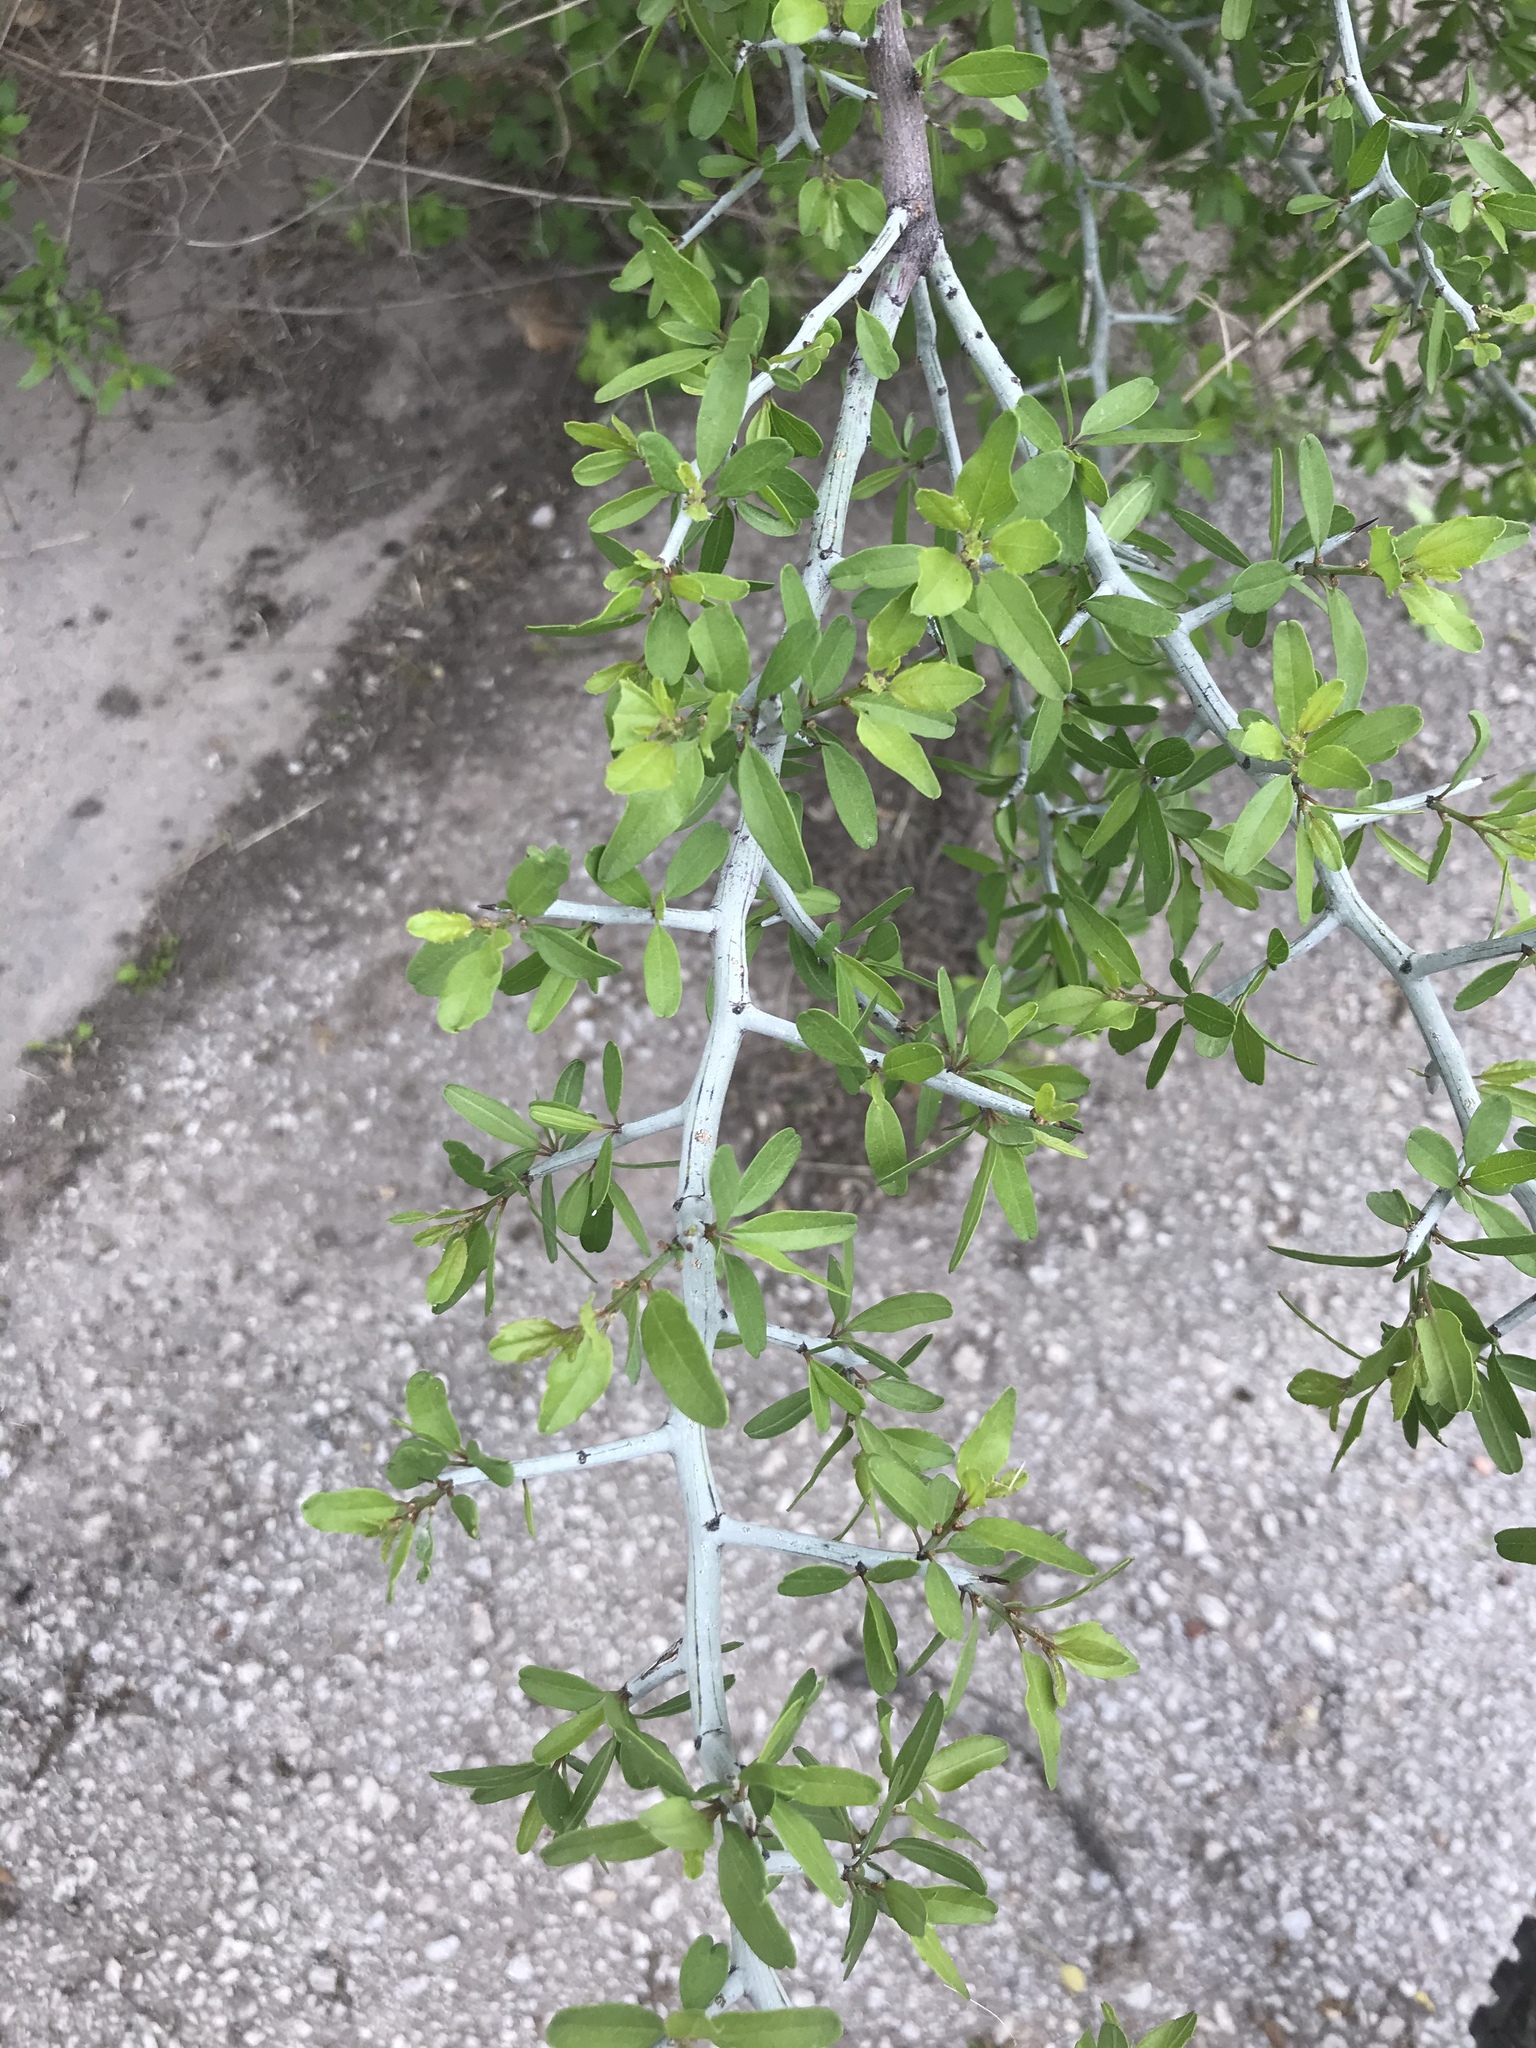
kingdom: Plantae
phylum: Tracheophyta
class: Magnoliopsida
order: Rosales
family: Rhamnaceae
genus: Sarcomphalus
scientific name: Sarcomphalus obtusifolius
